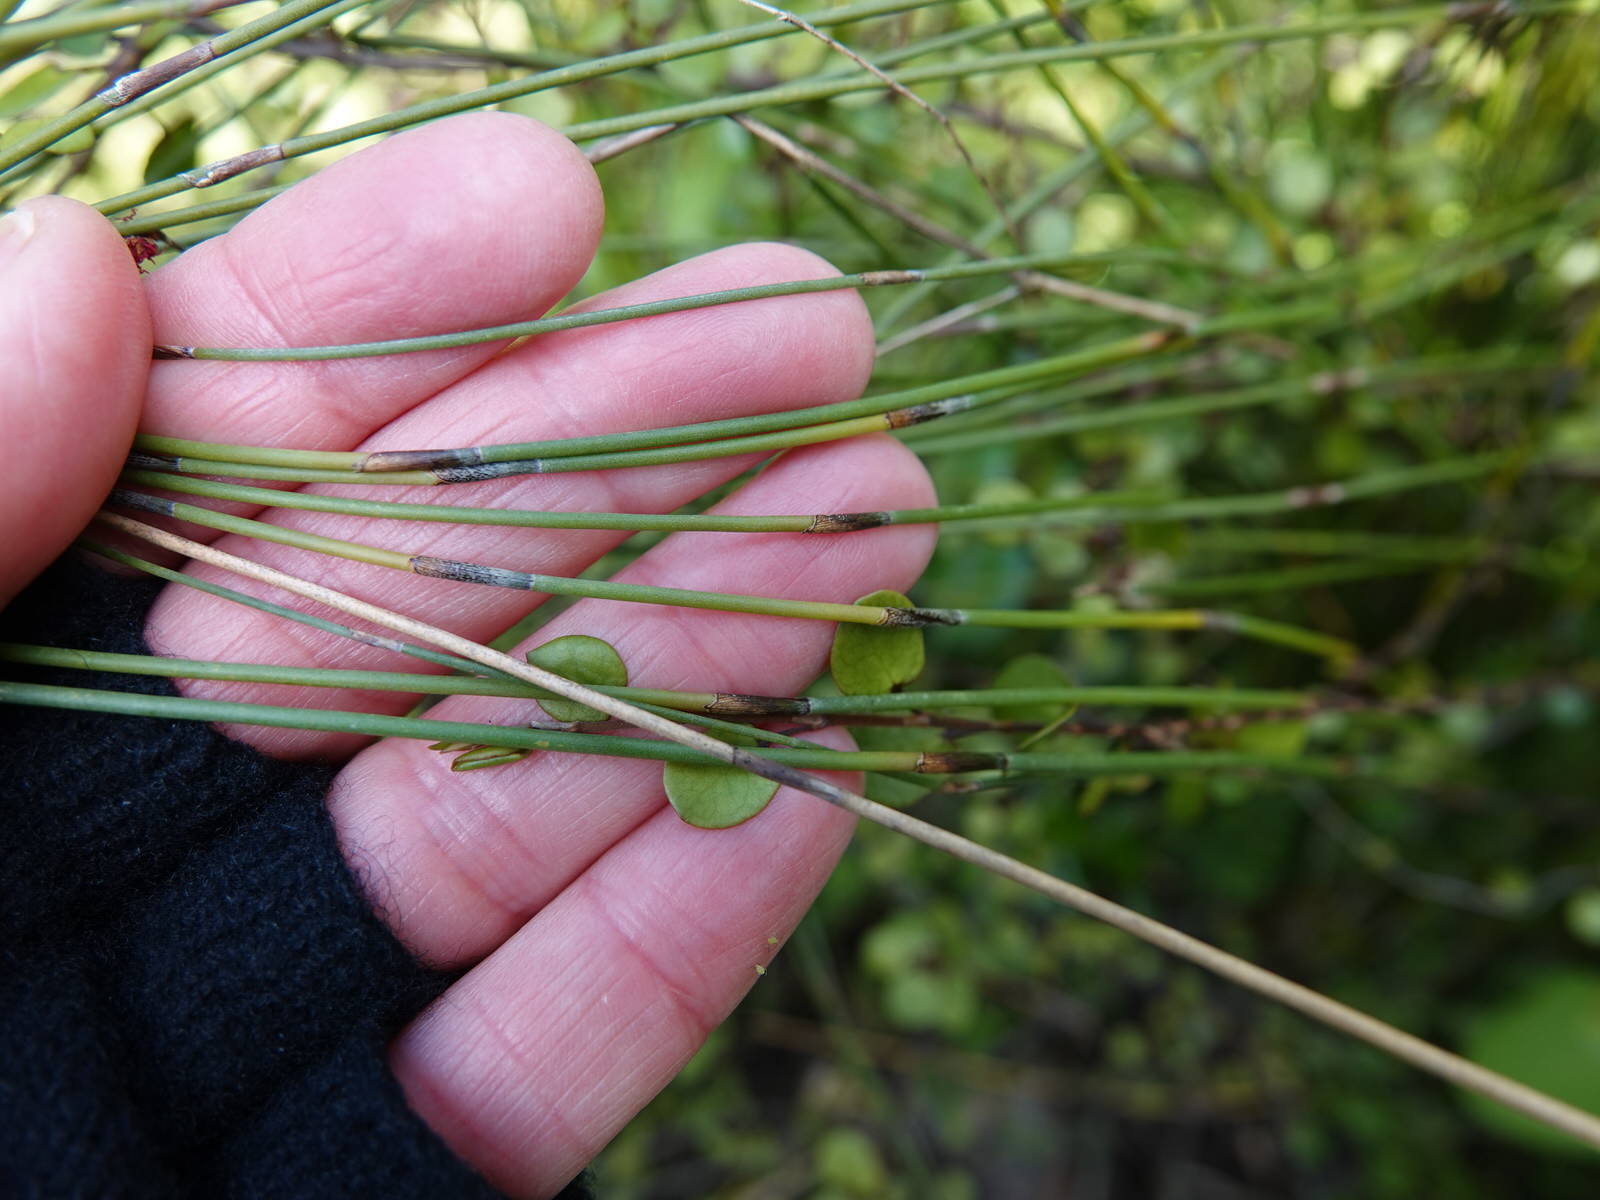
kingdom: Plantae
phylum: Tracheophyta
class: Liliopsida
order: Poales
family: Restionaceae
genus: Apodasmia
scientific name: Apodasmia similis
